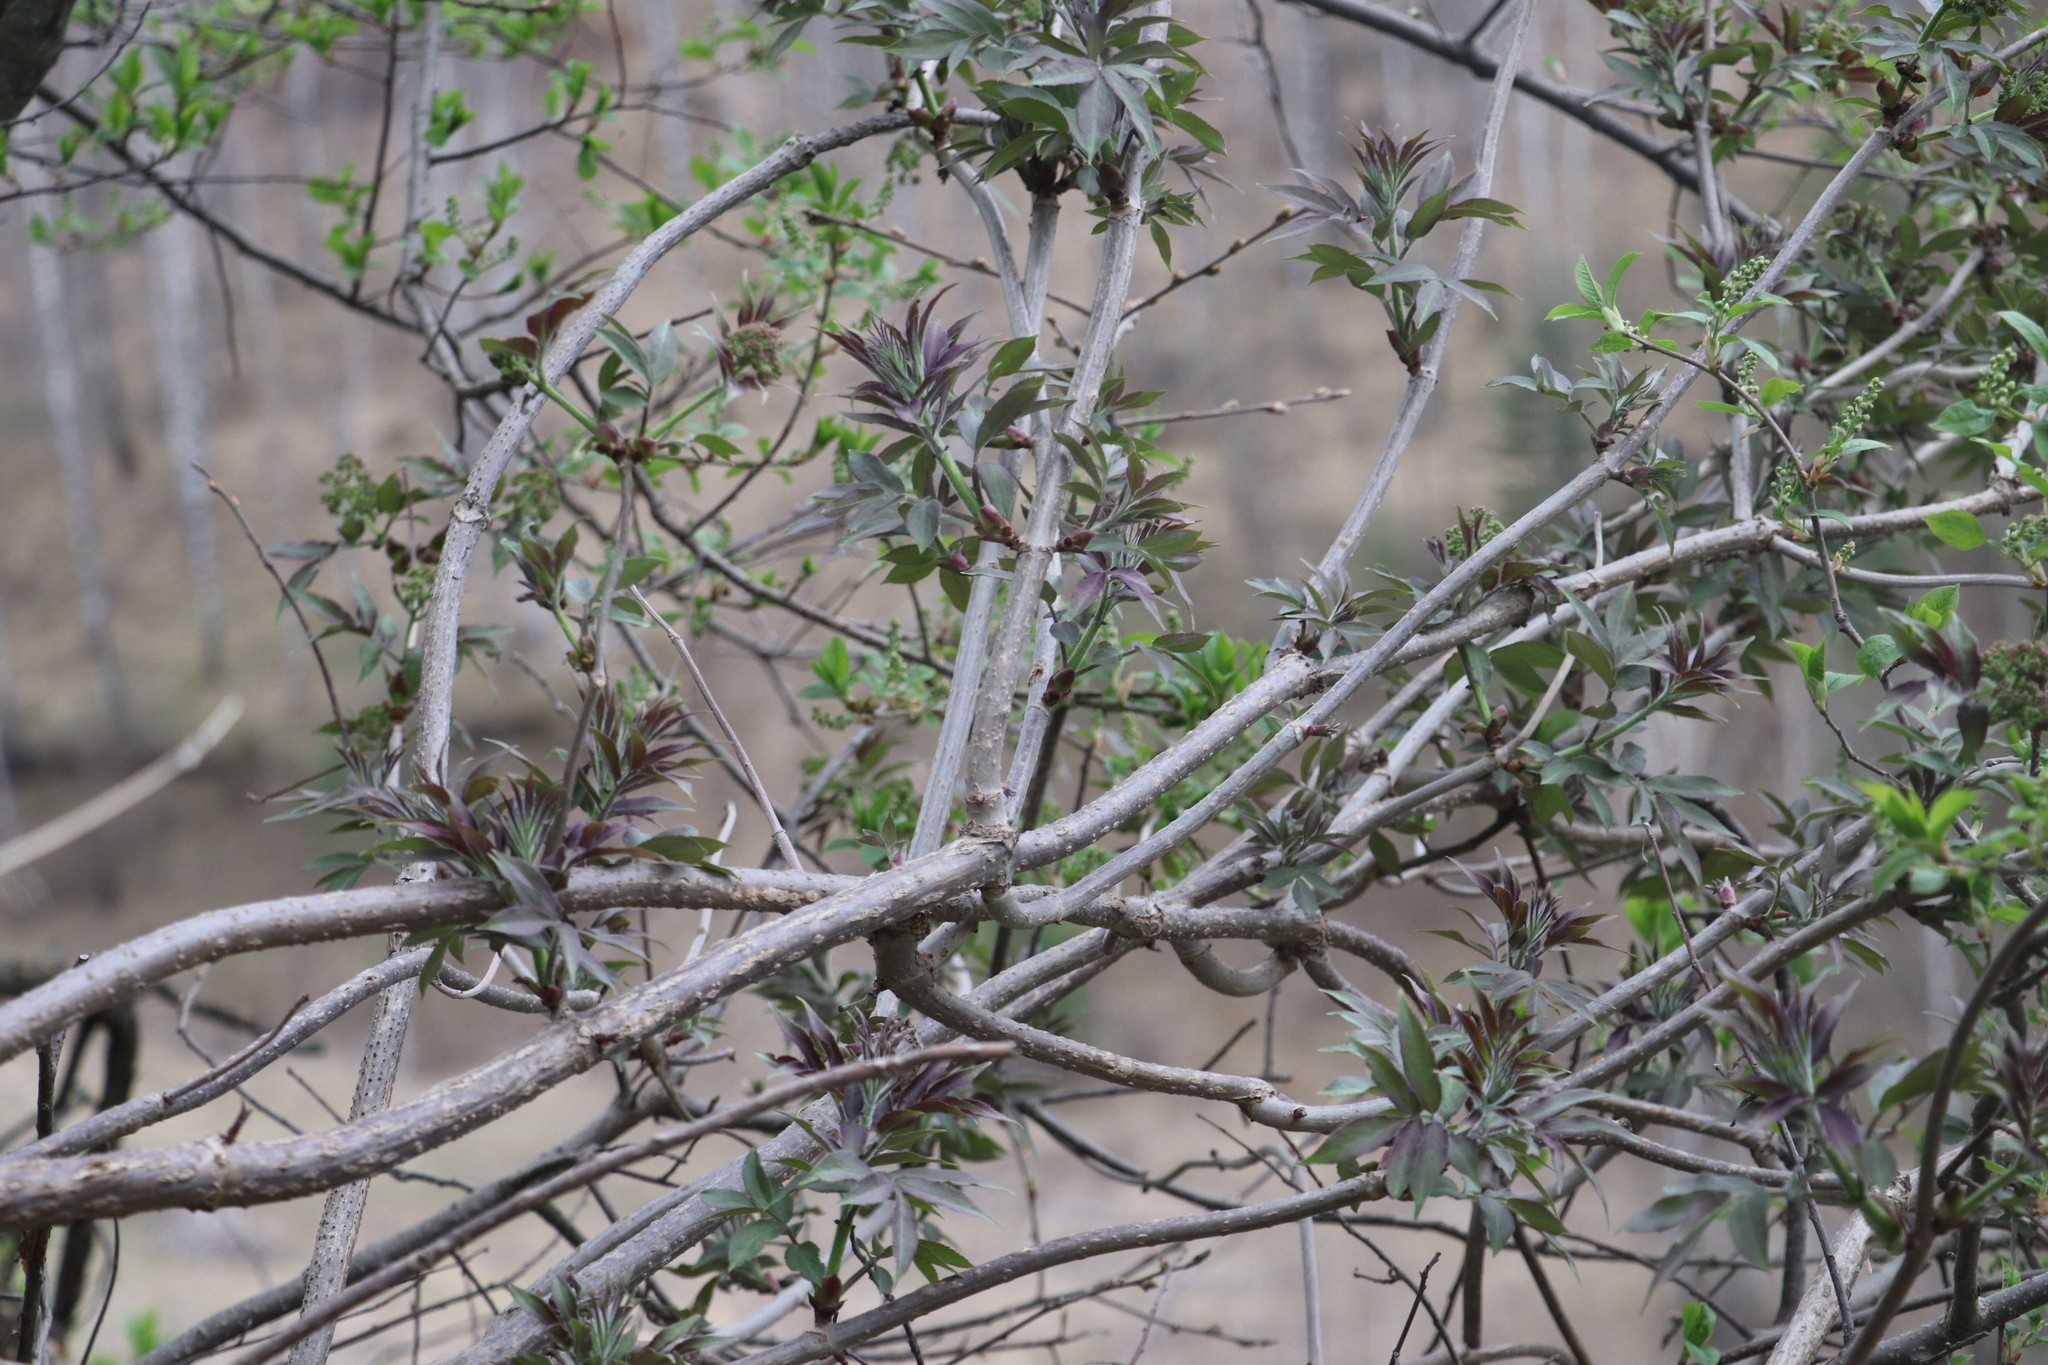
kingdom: Plantae
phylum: Tracheophyta
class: Magnoliopsida
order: Dipsacales
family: Viburnaceae
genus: Sambucus
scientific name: Sambucus sibirica
